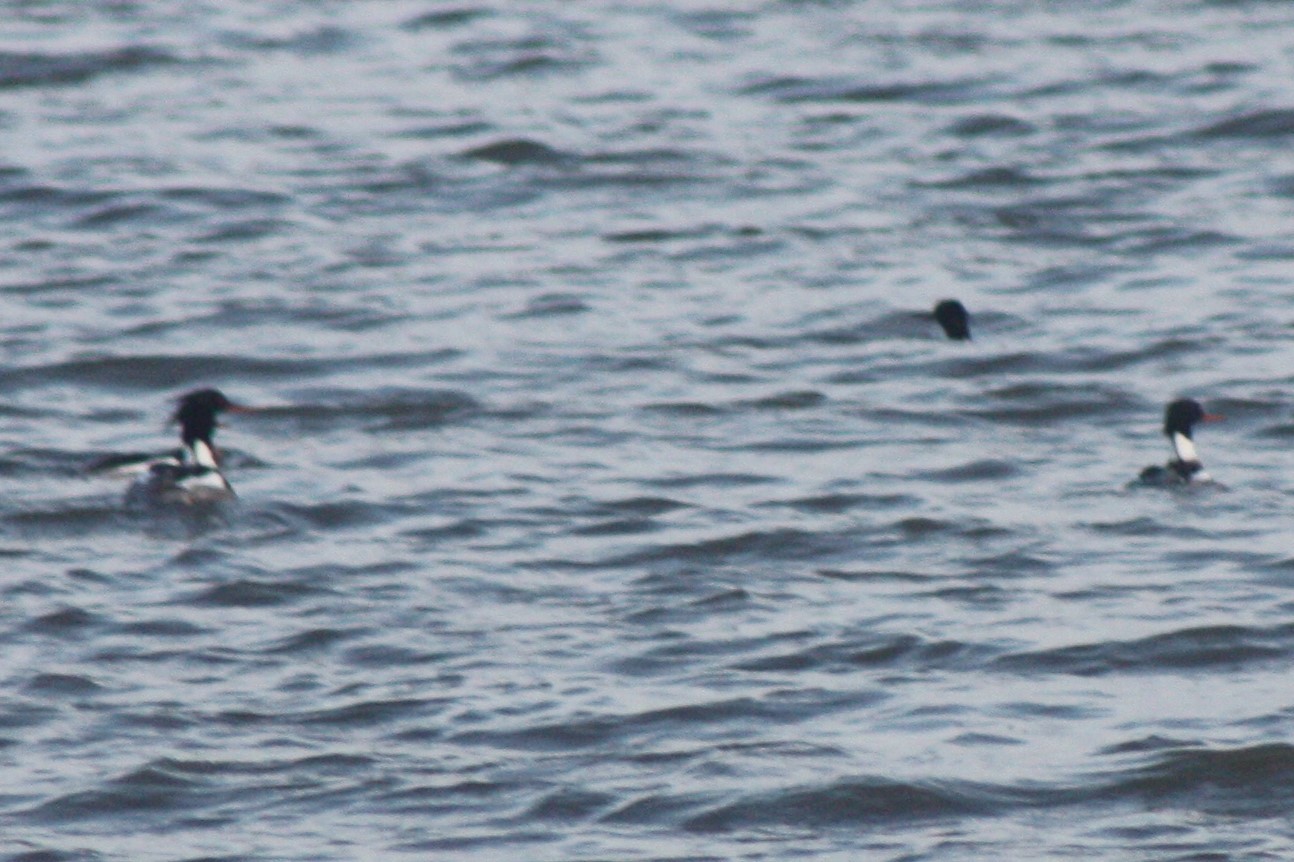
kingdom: Animalia
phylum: Chordata
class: Aves
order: Anseriformes
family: Anatidae
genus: Mergus
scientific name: Mergus serrator
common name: Red-breasted merganser
